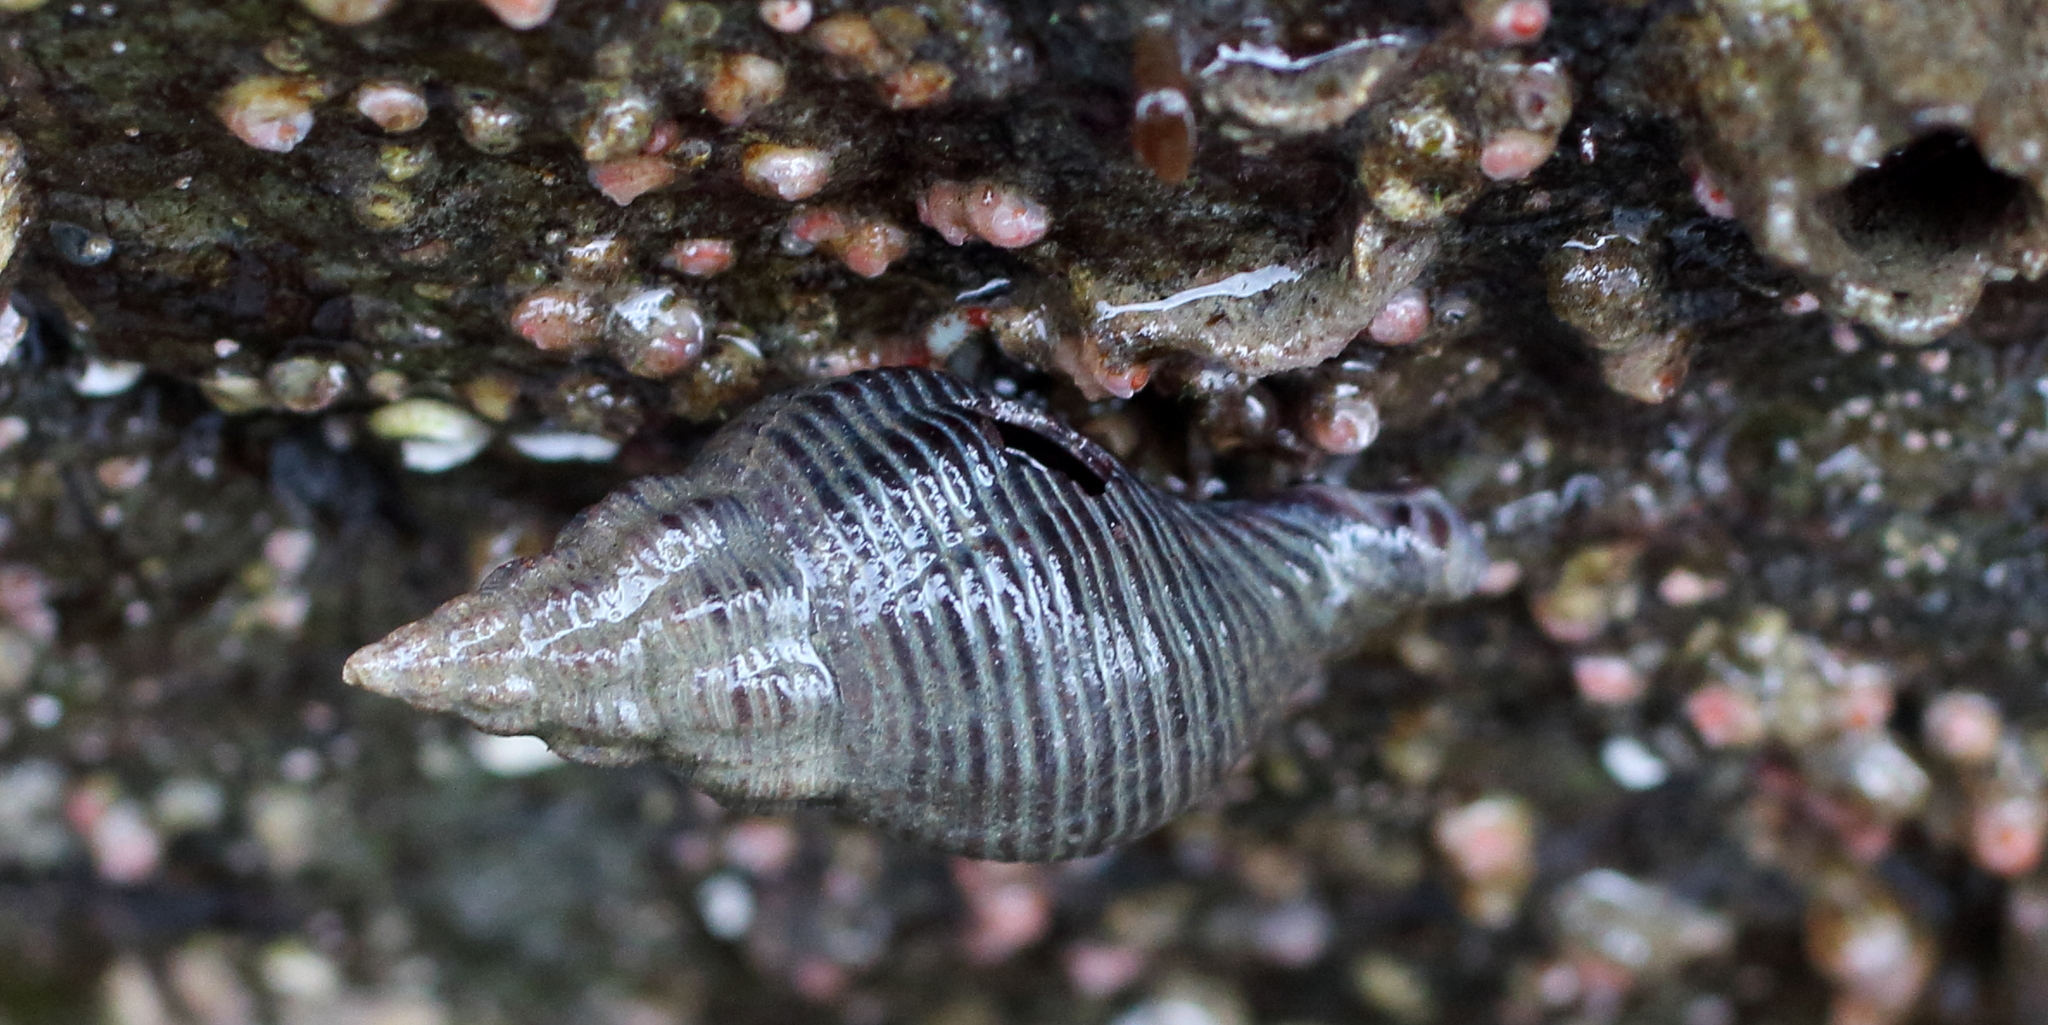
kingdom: Animalia
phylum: Mollusca
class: Gastropoda
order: Neogastropoda
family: Tudiclidae
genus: Lirabuccinum
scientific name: Lirabuccinum dirum
